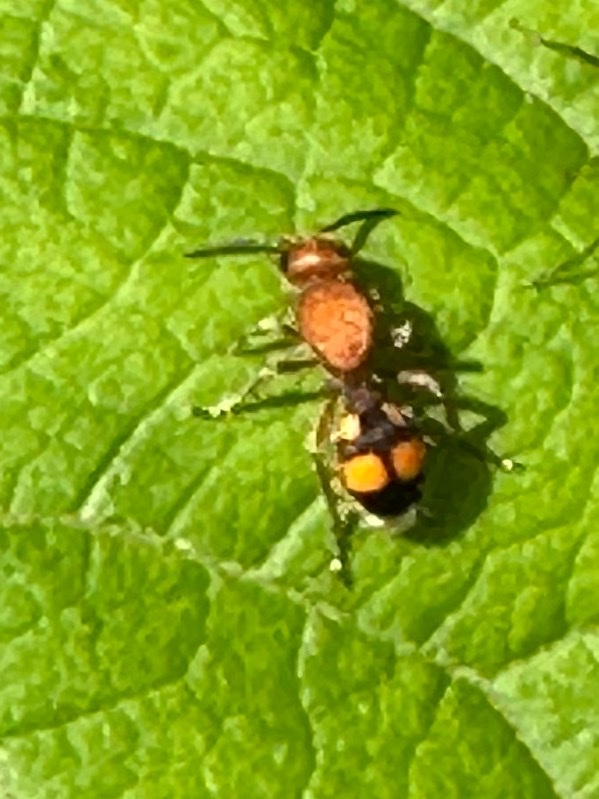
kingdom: Animalia
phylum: Arthropoda
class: Insecta
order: Hymenoptera
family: Mutillidae
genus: Dasymutilla
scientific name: Dasymutilla
